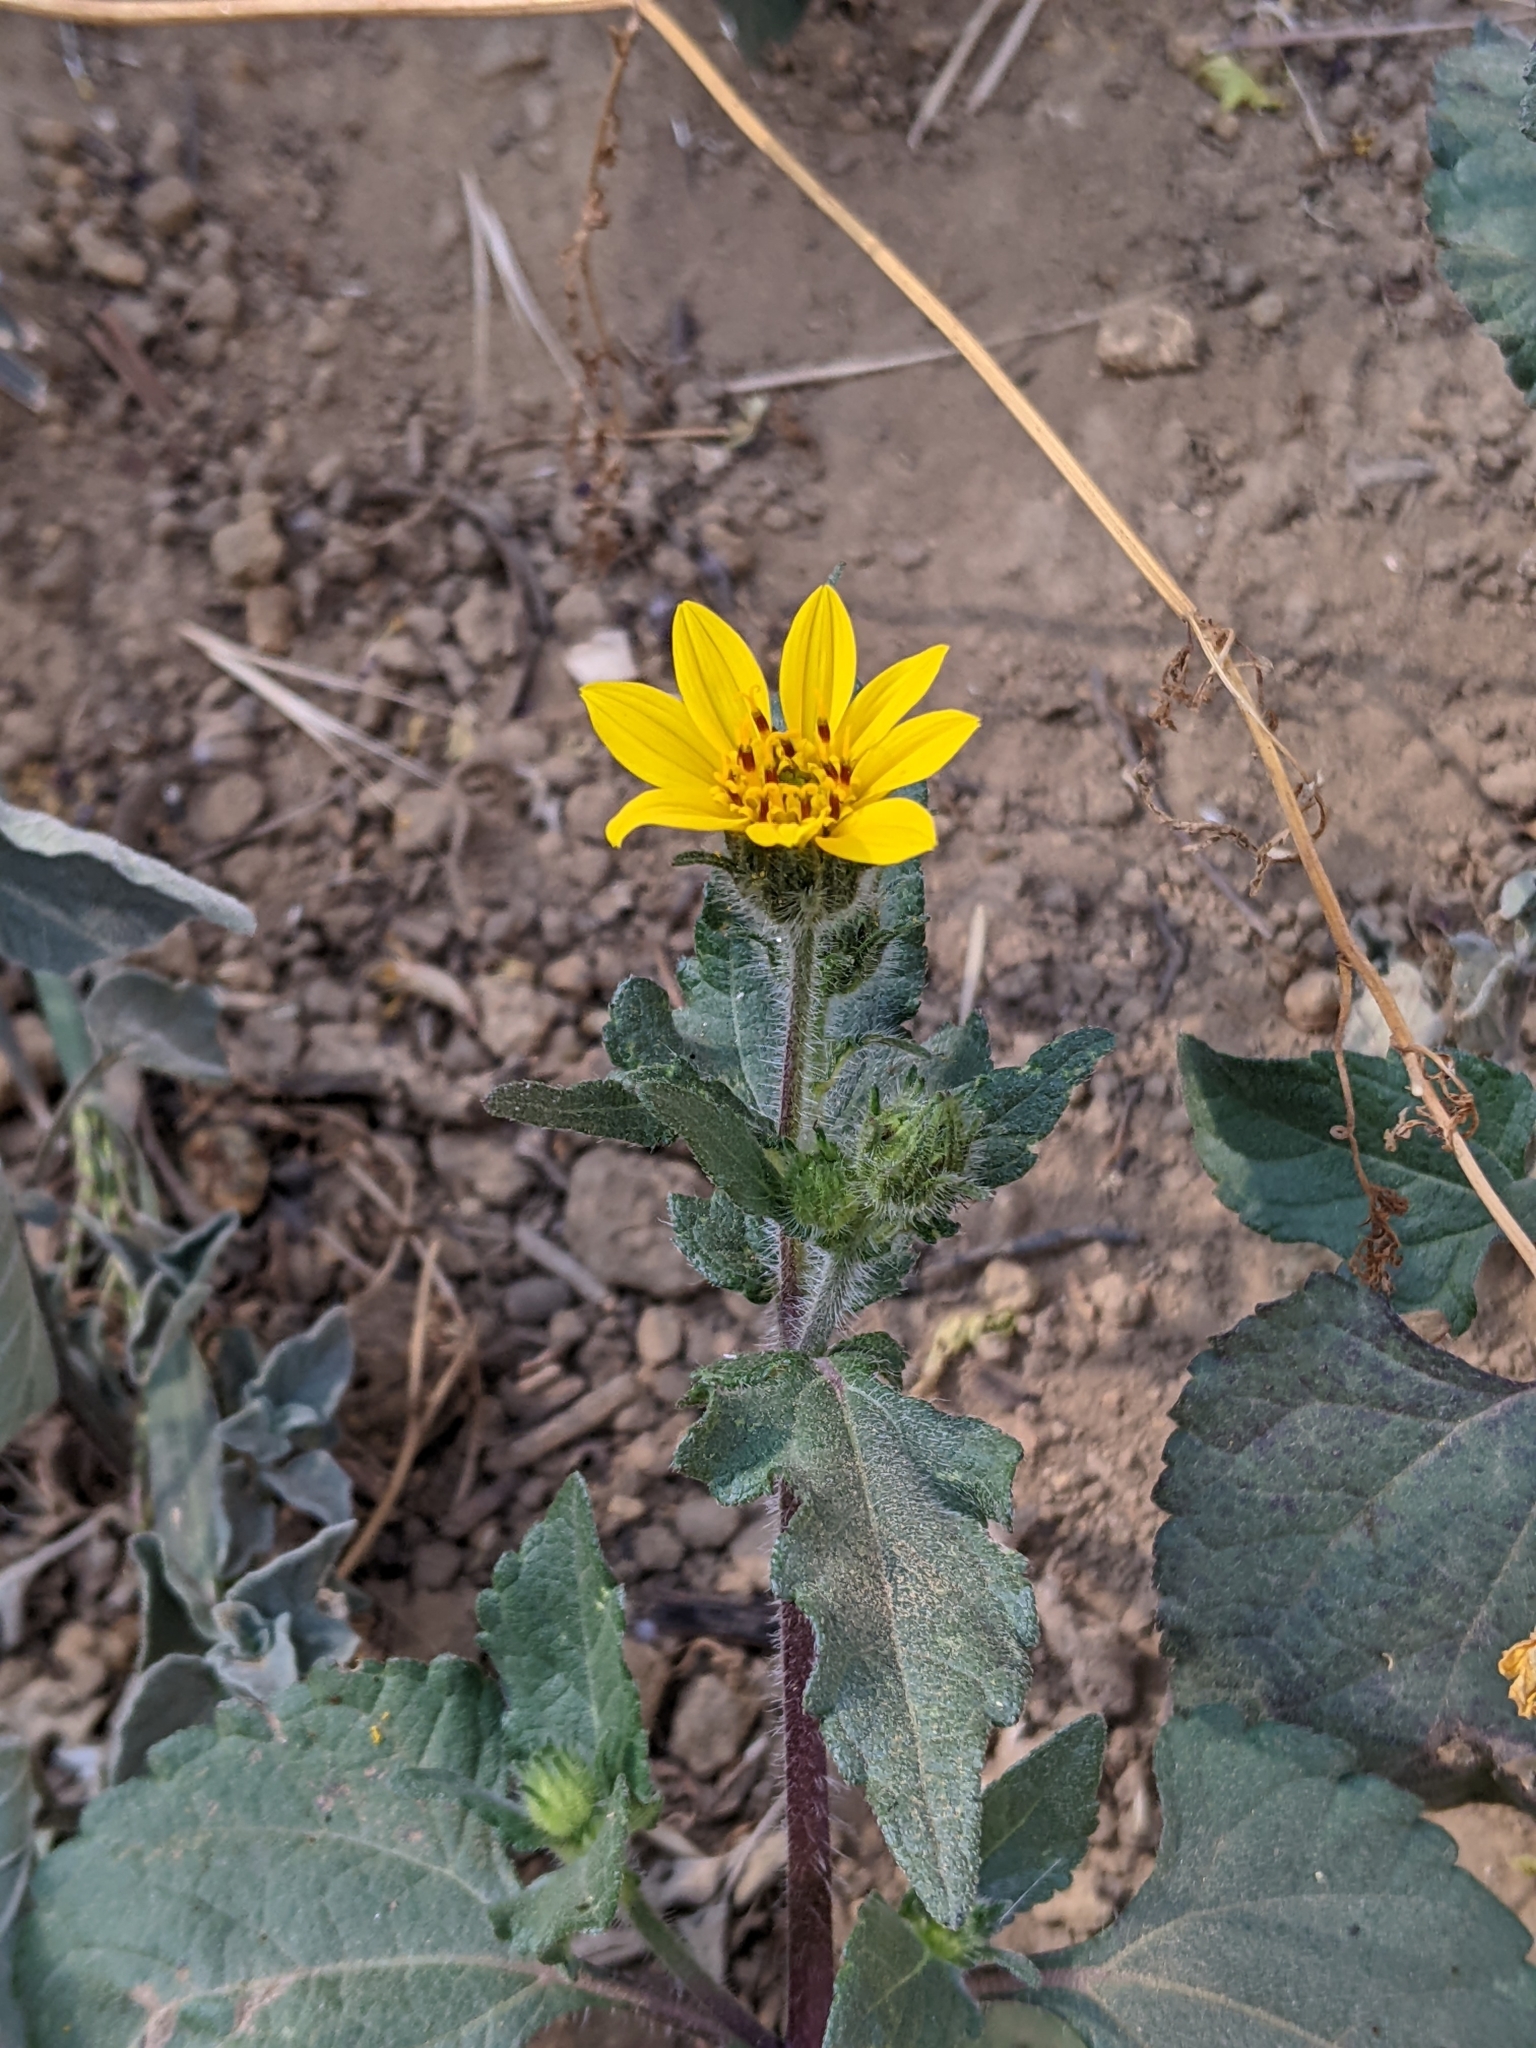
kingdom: Plantae
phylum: Tracheophyta
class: Magnoliopsida
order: Asterales
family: Asteraceae
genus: Simsia
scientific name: Simsia amplexicaulis
